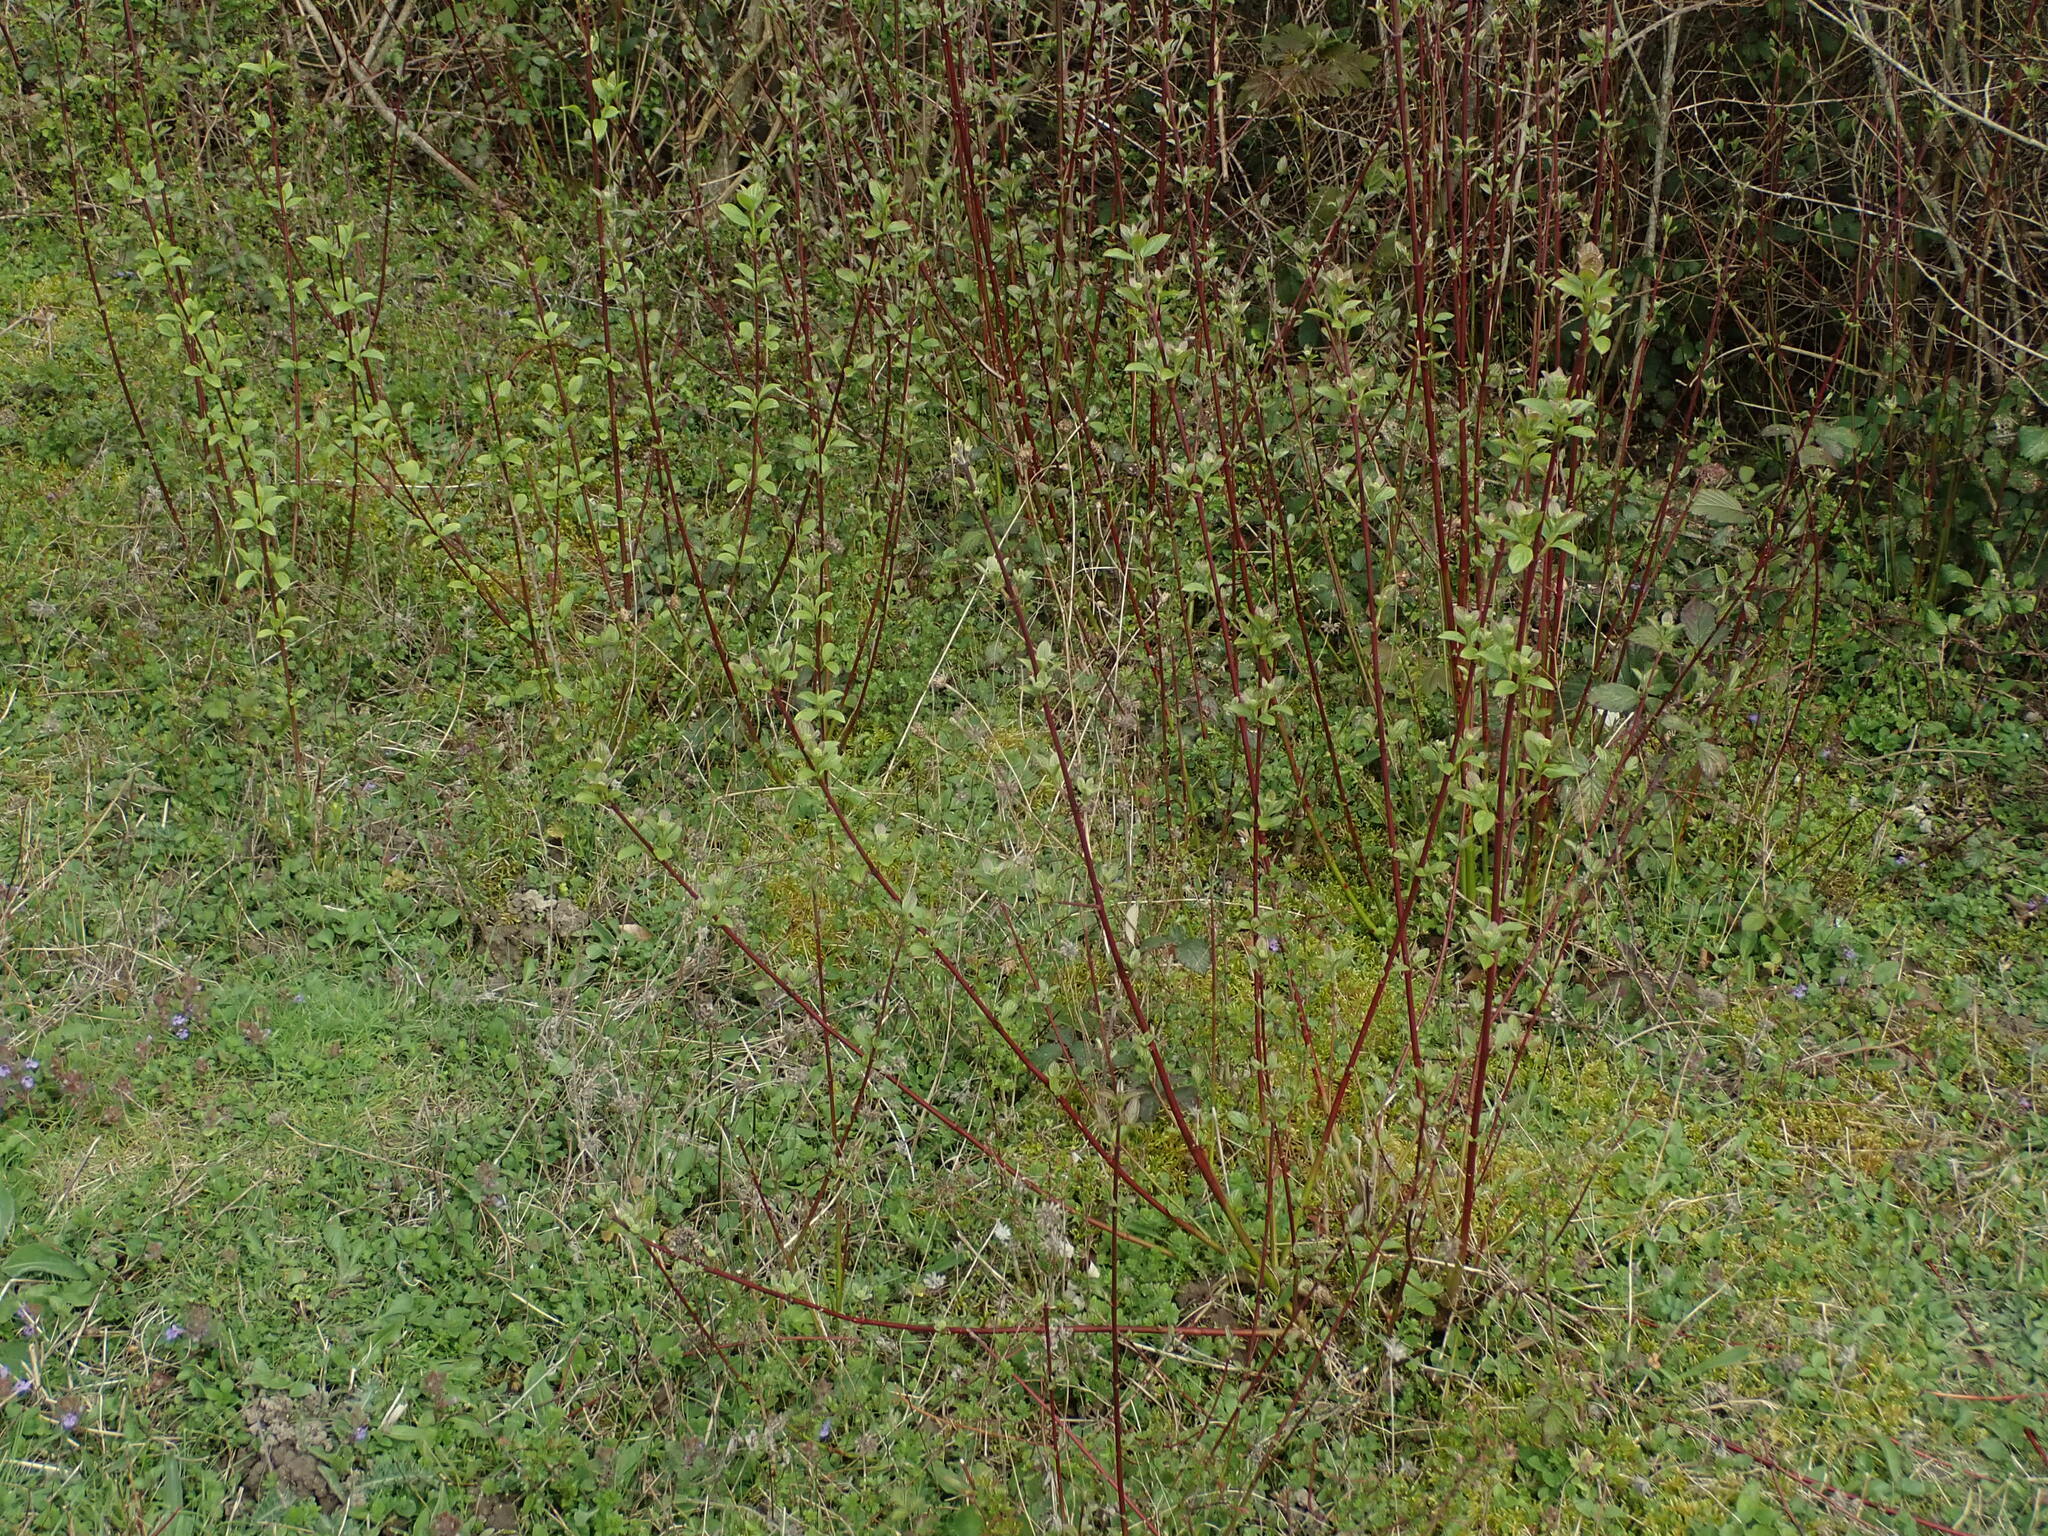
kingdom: Plantae
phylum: Tracheophyta
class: Magnoliopsida
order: Cornales
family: Cornaceae
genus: Cornus
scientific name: Cornus sanguinea
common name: Dogwood
